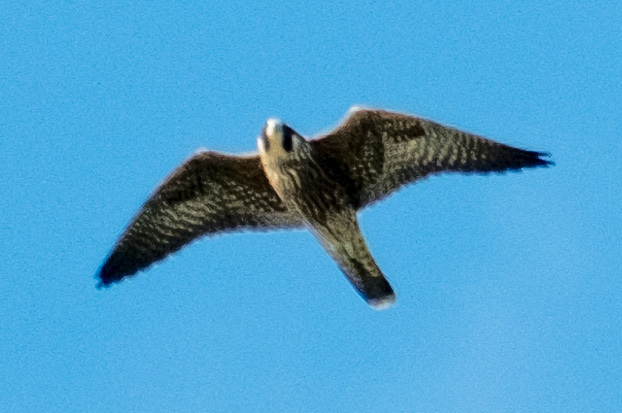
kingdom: Animalia
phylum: Chordata
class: Aves
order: Falconiformes
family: Falconidae
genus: Falco
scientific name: Falco peregrinus
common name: Peregrine falcon
